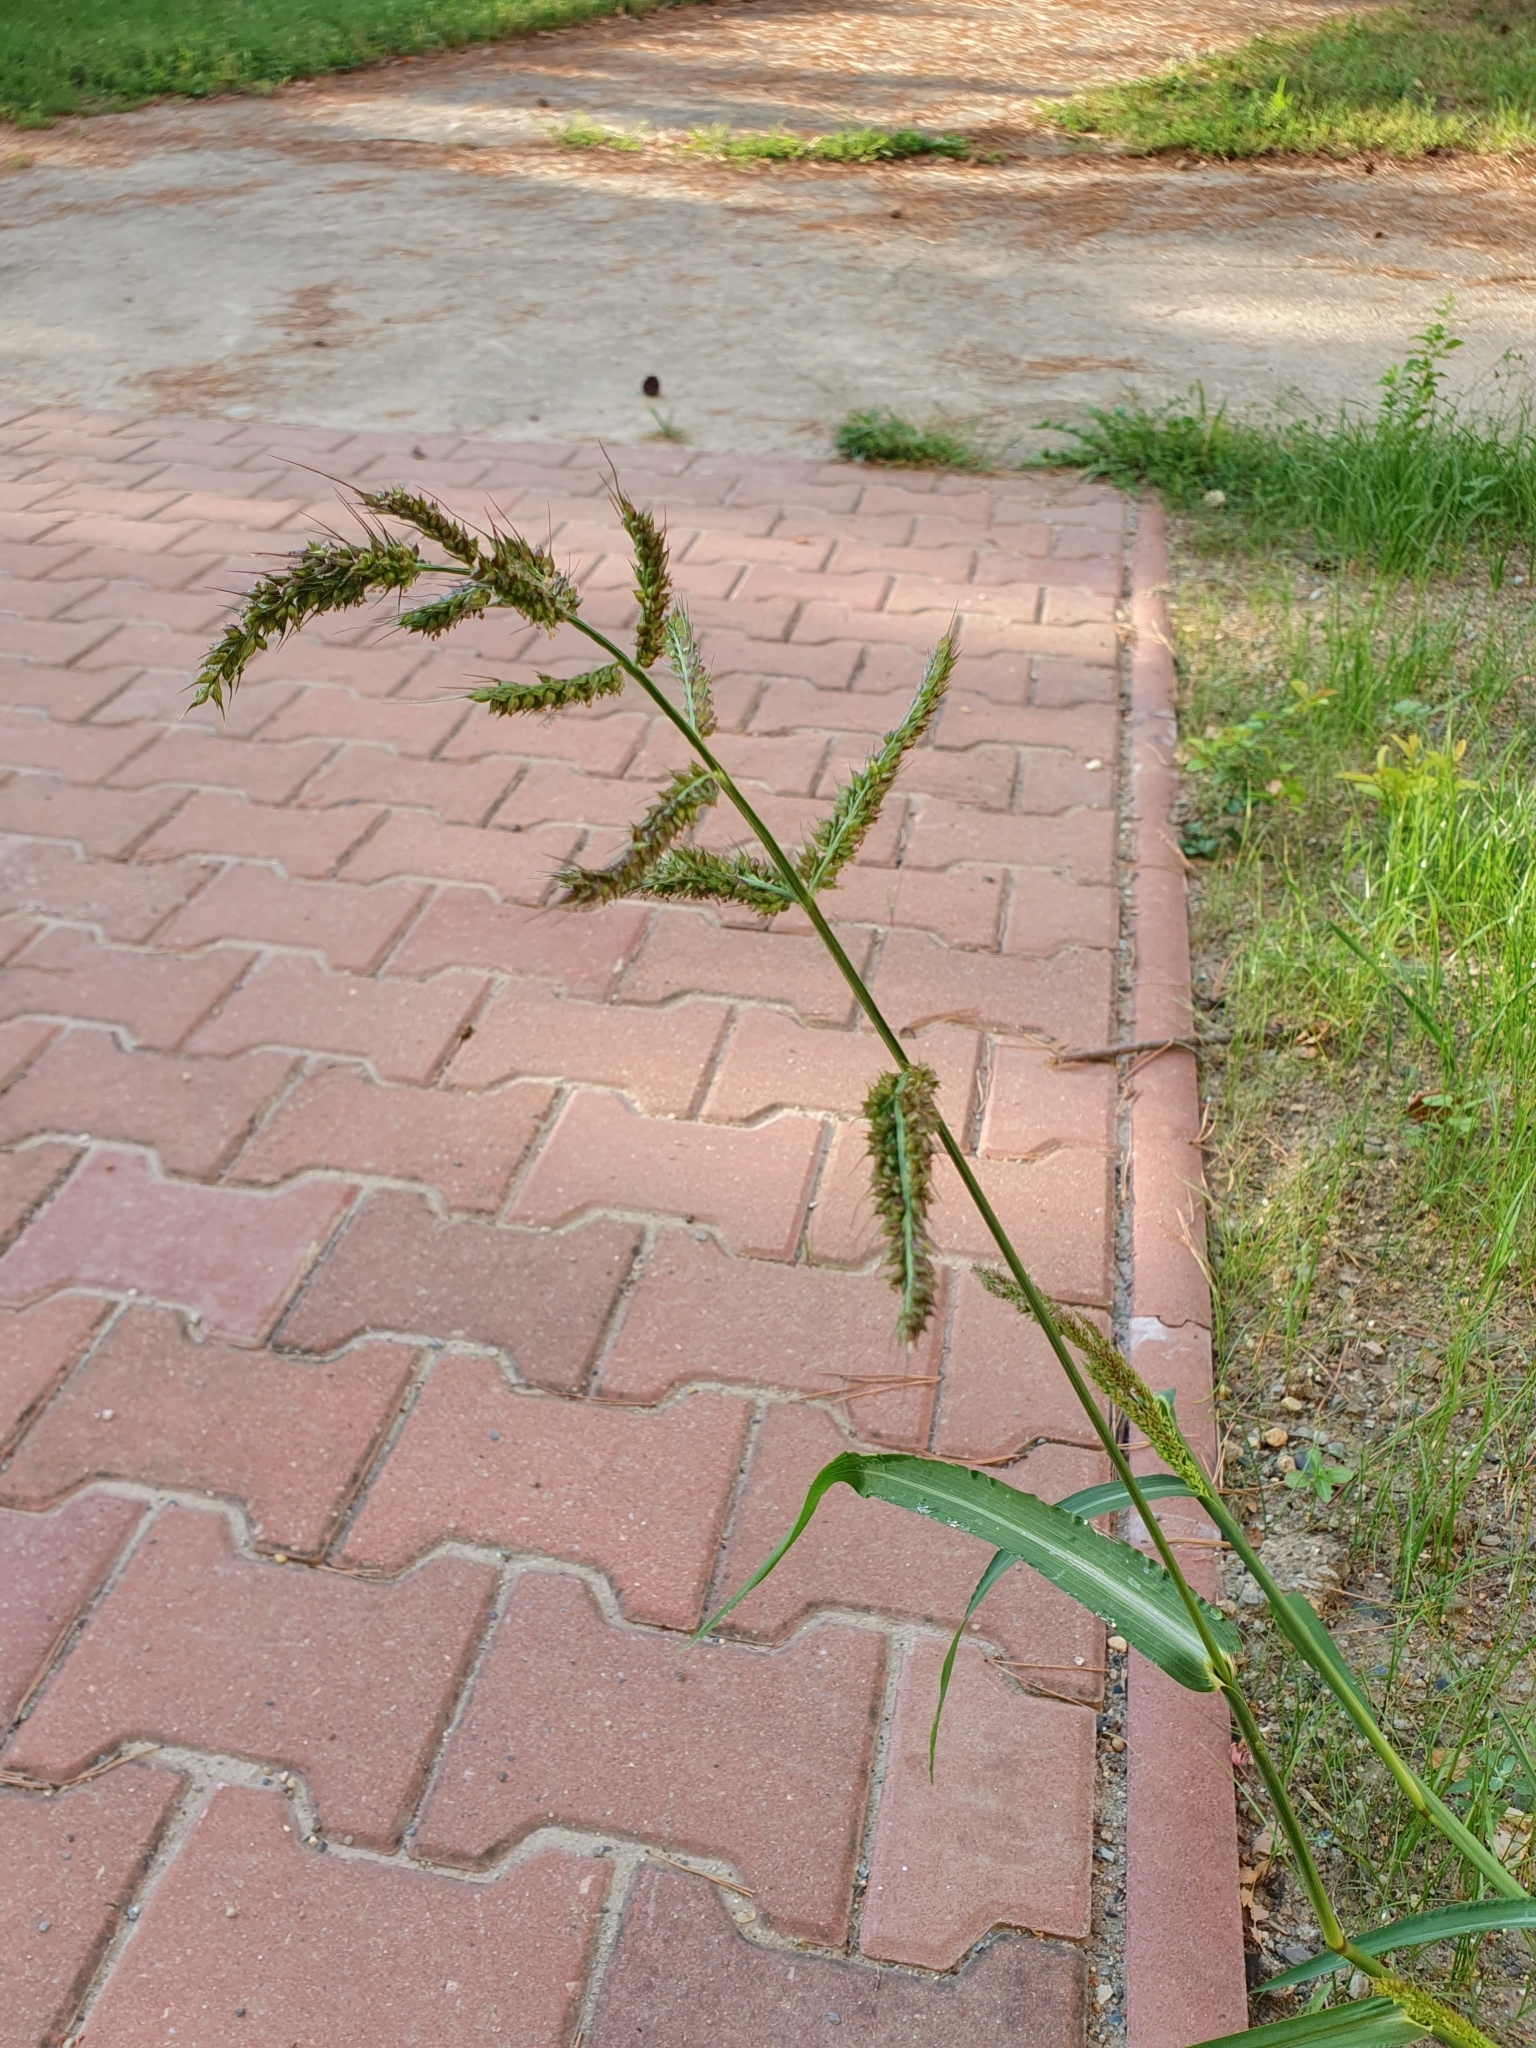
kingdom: Plantae
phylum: Tracheophyta
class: Liliopsida
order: Poales
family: Poaceae
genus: Echinochloa
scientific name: Echinochloa crus-galli
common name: Cockspur
